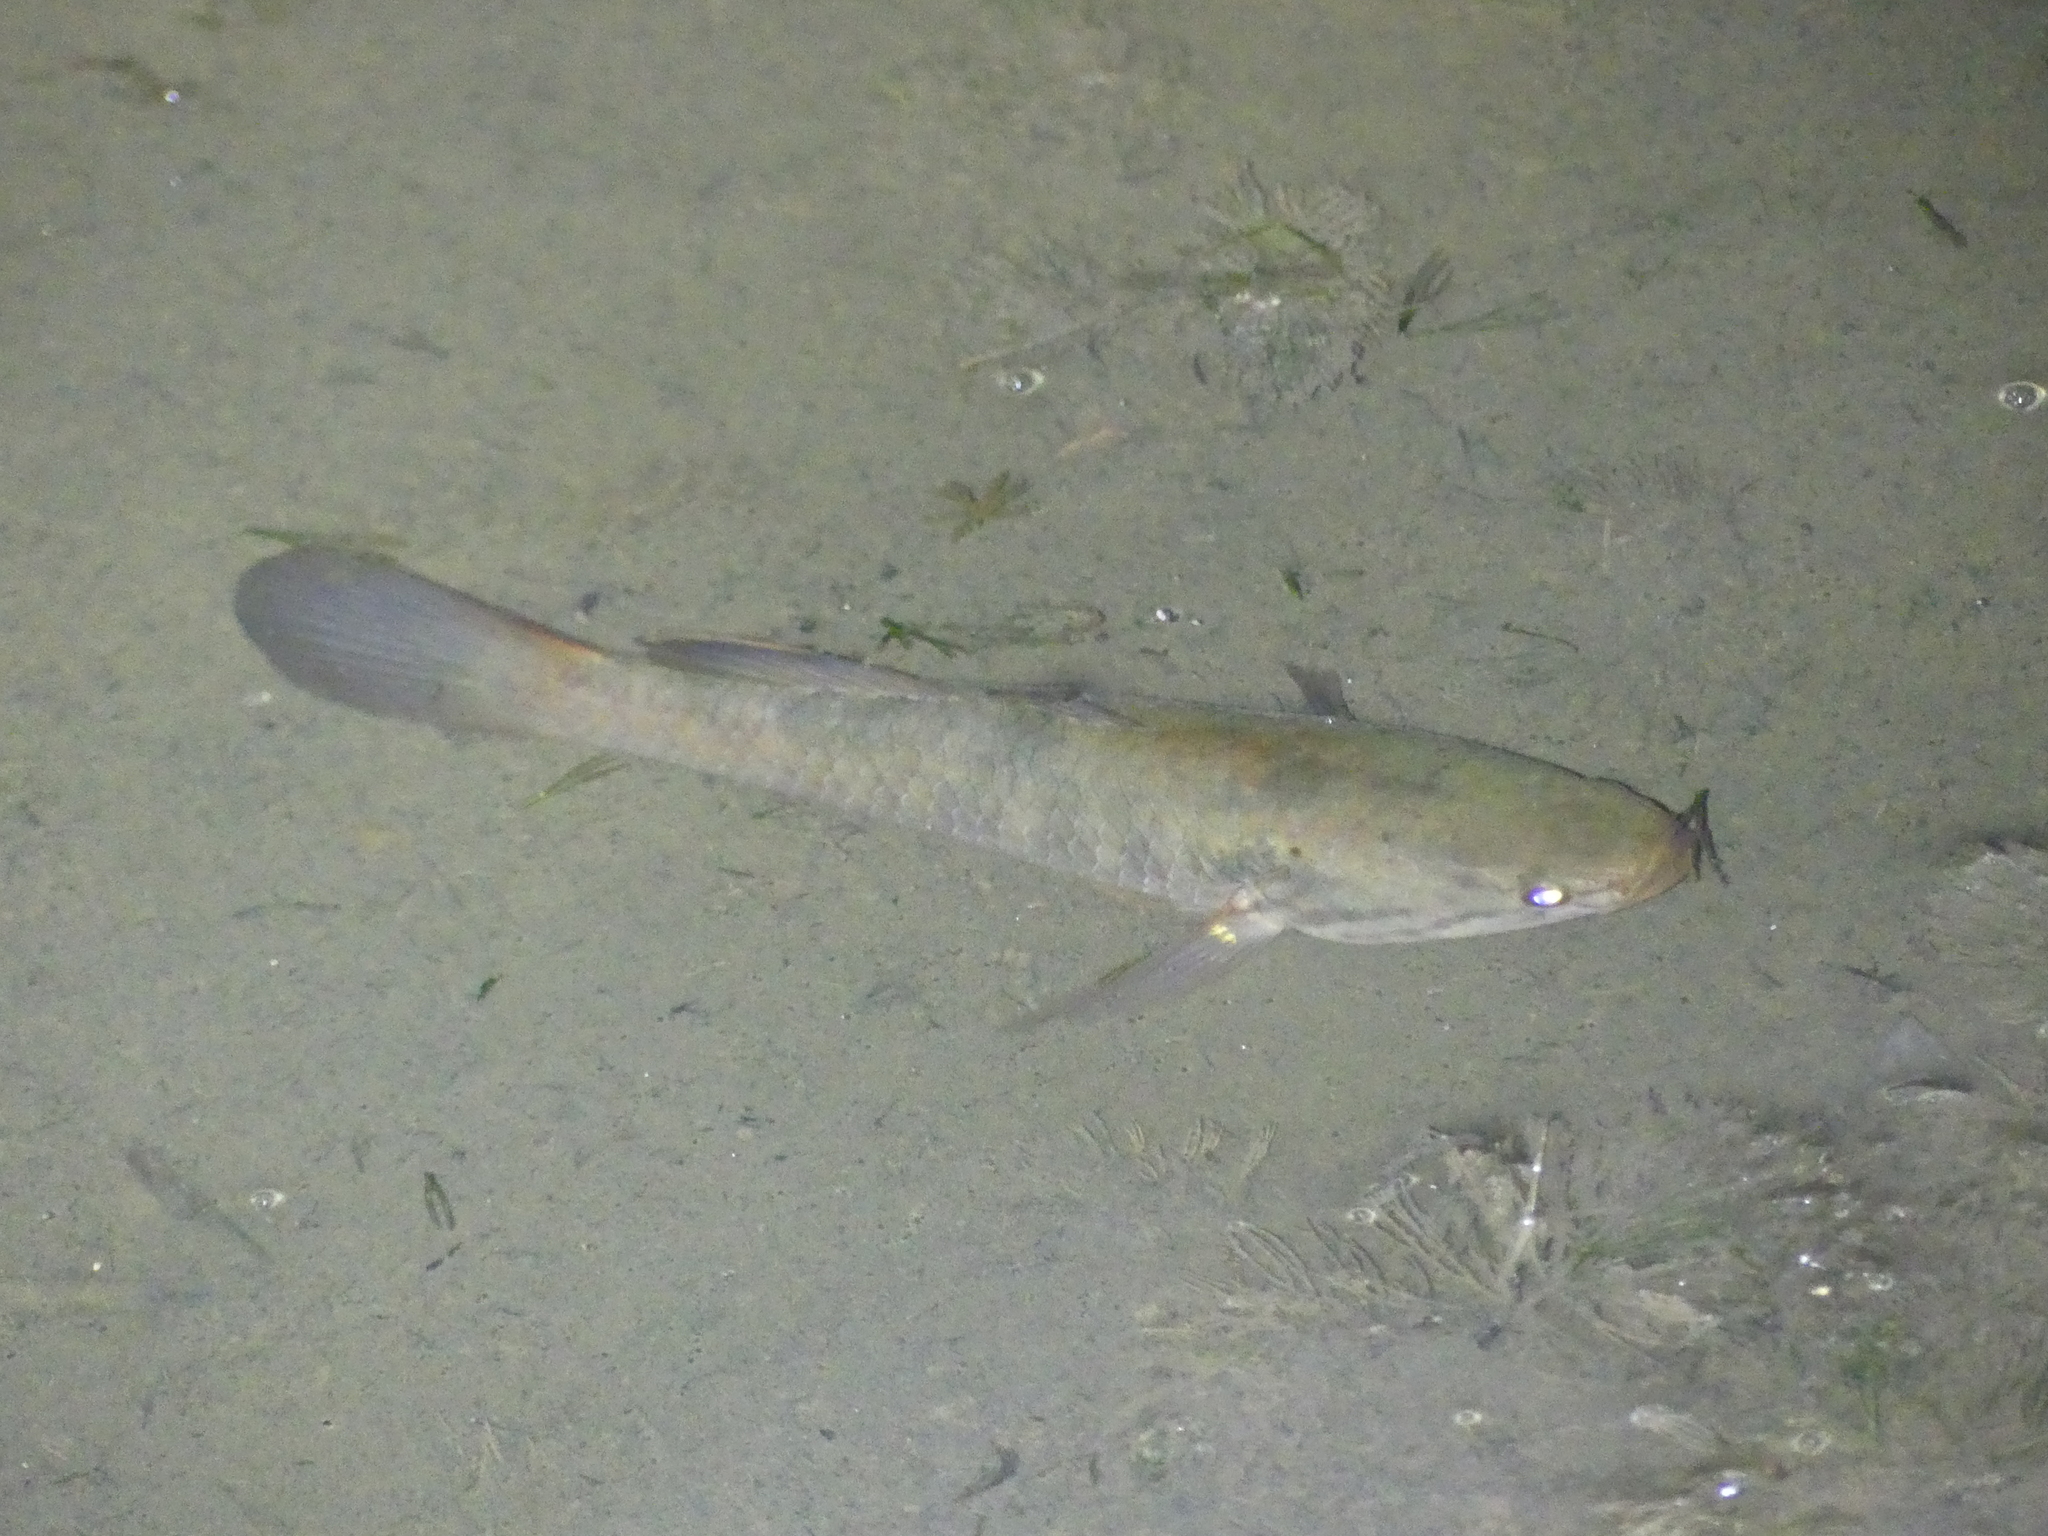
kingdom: Animalia
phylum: Chordata
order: Perciformes
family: Eleotridae
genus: Giuris
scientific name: Giuris
